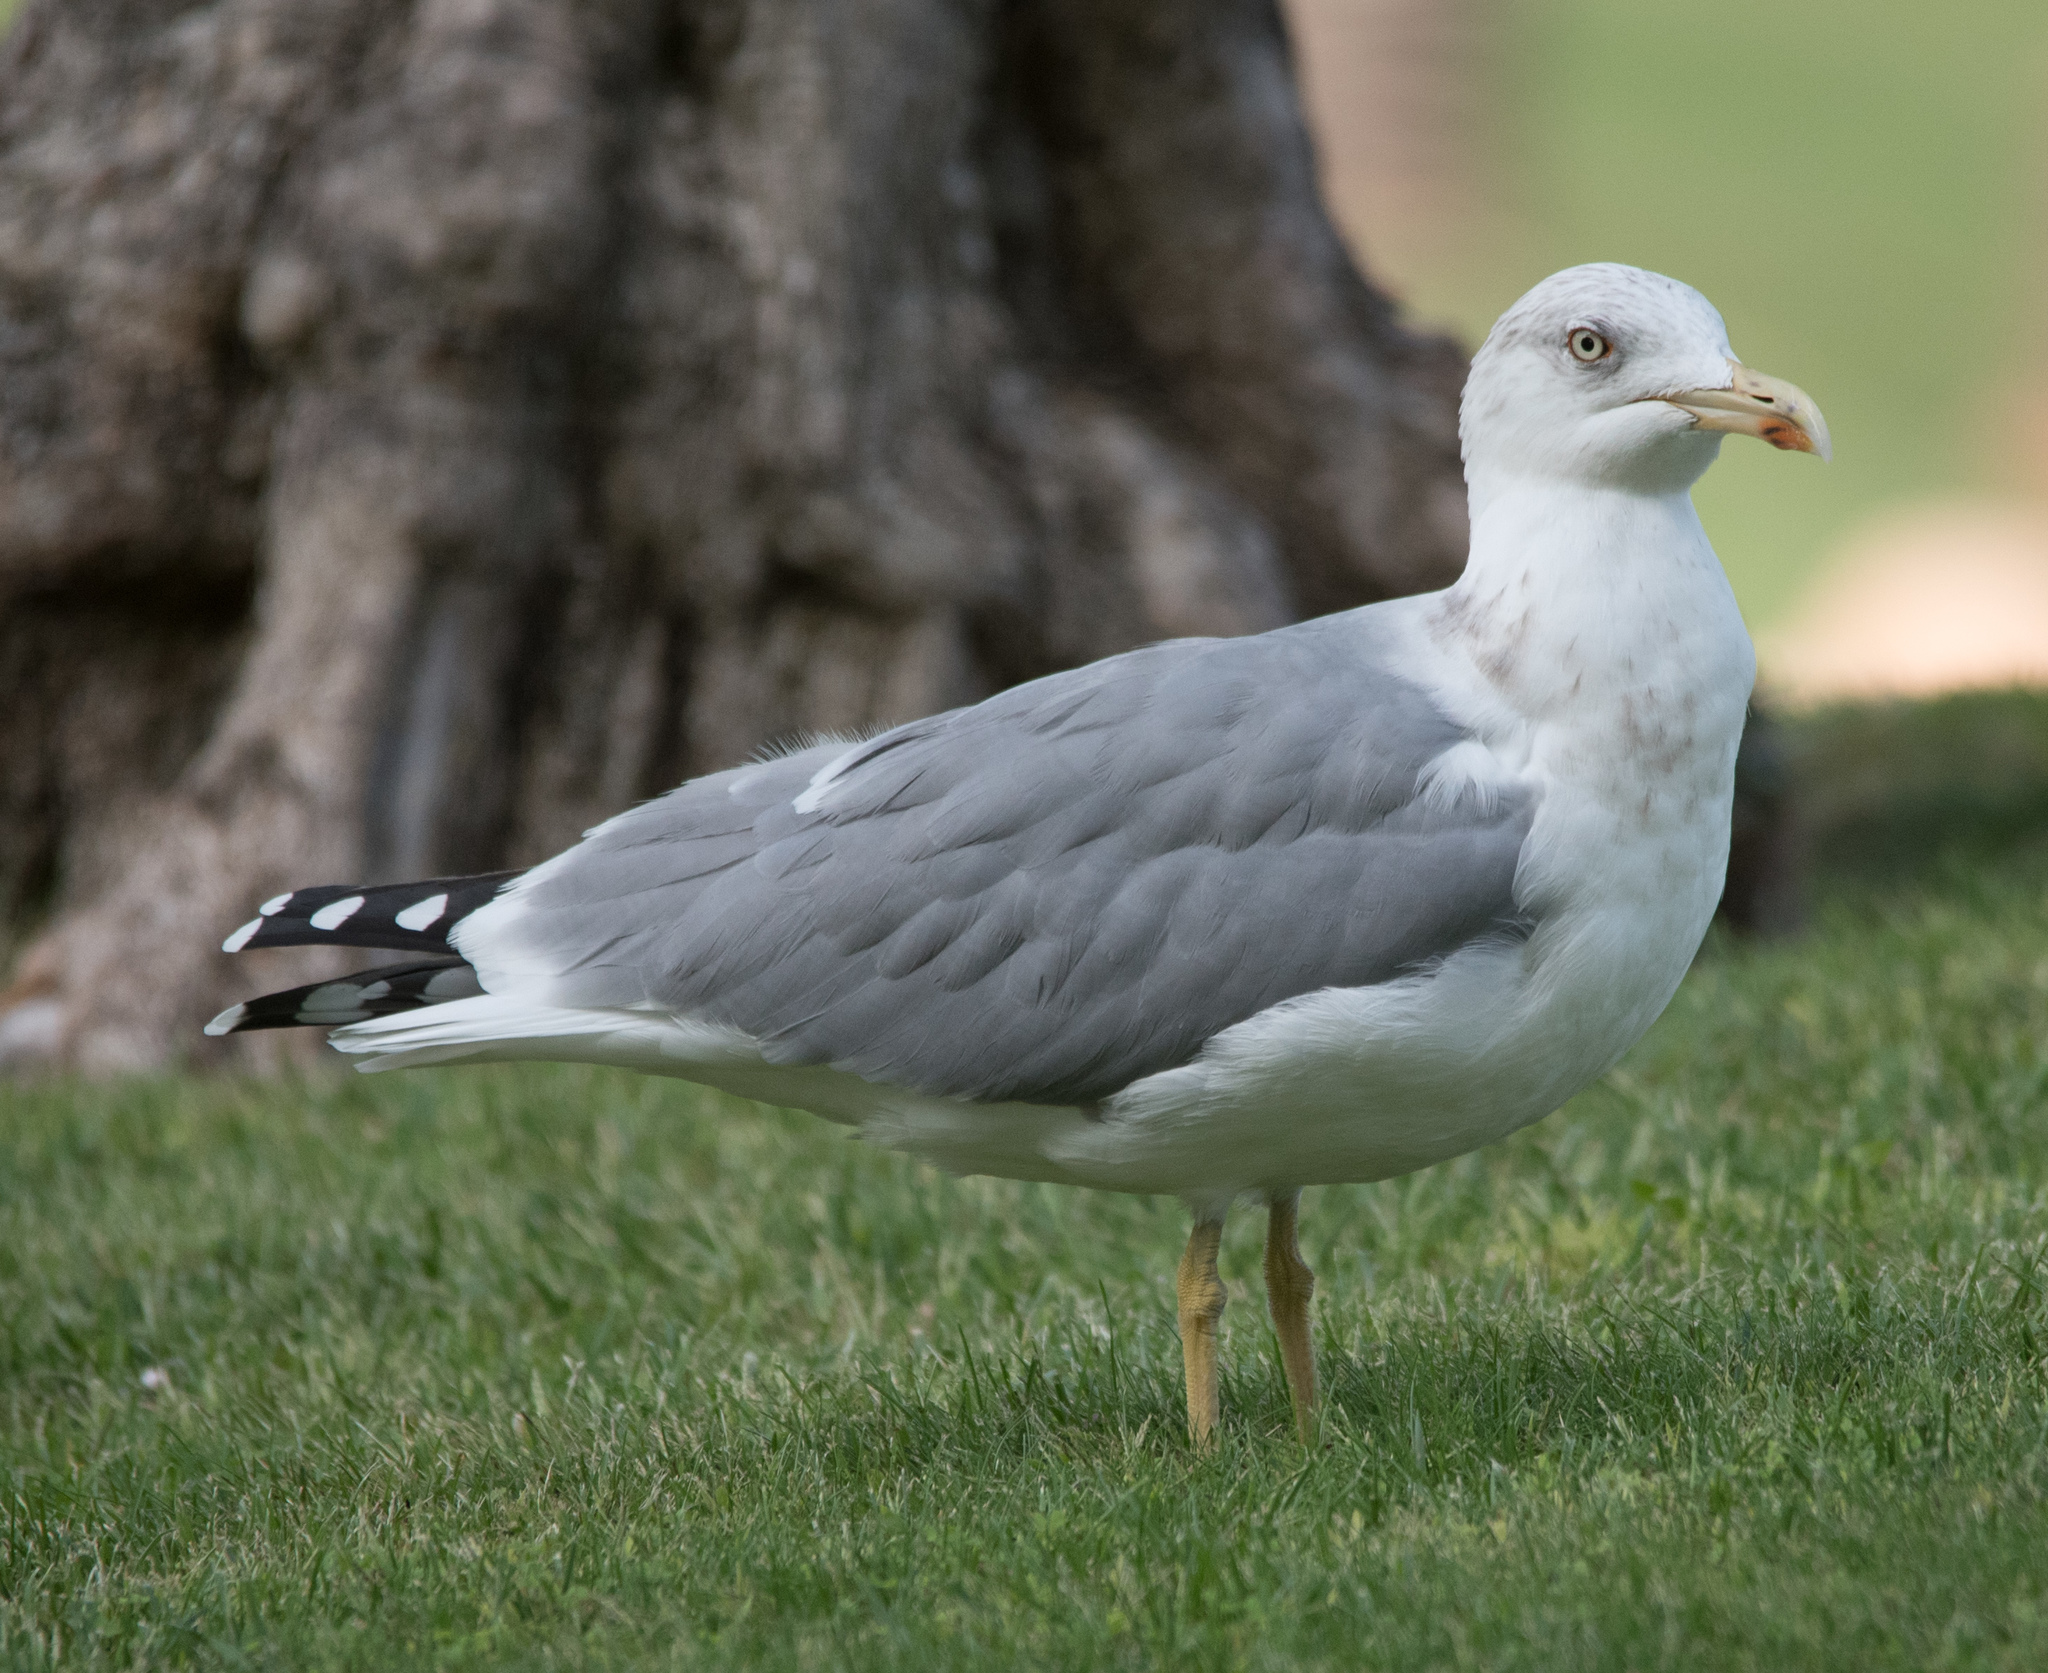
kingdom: Animalia
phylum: Chordata
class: Aves
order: Charadriiformes
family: Laridae
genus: Larus
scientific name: Larus michahellis
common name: Yellow-legged gull
